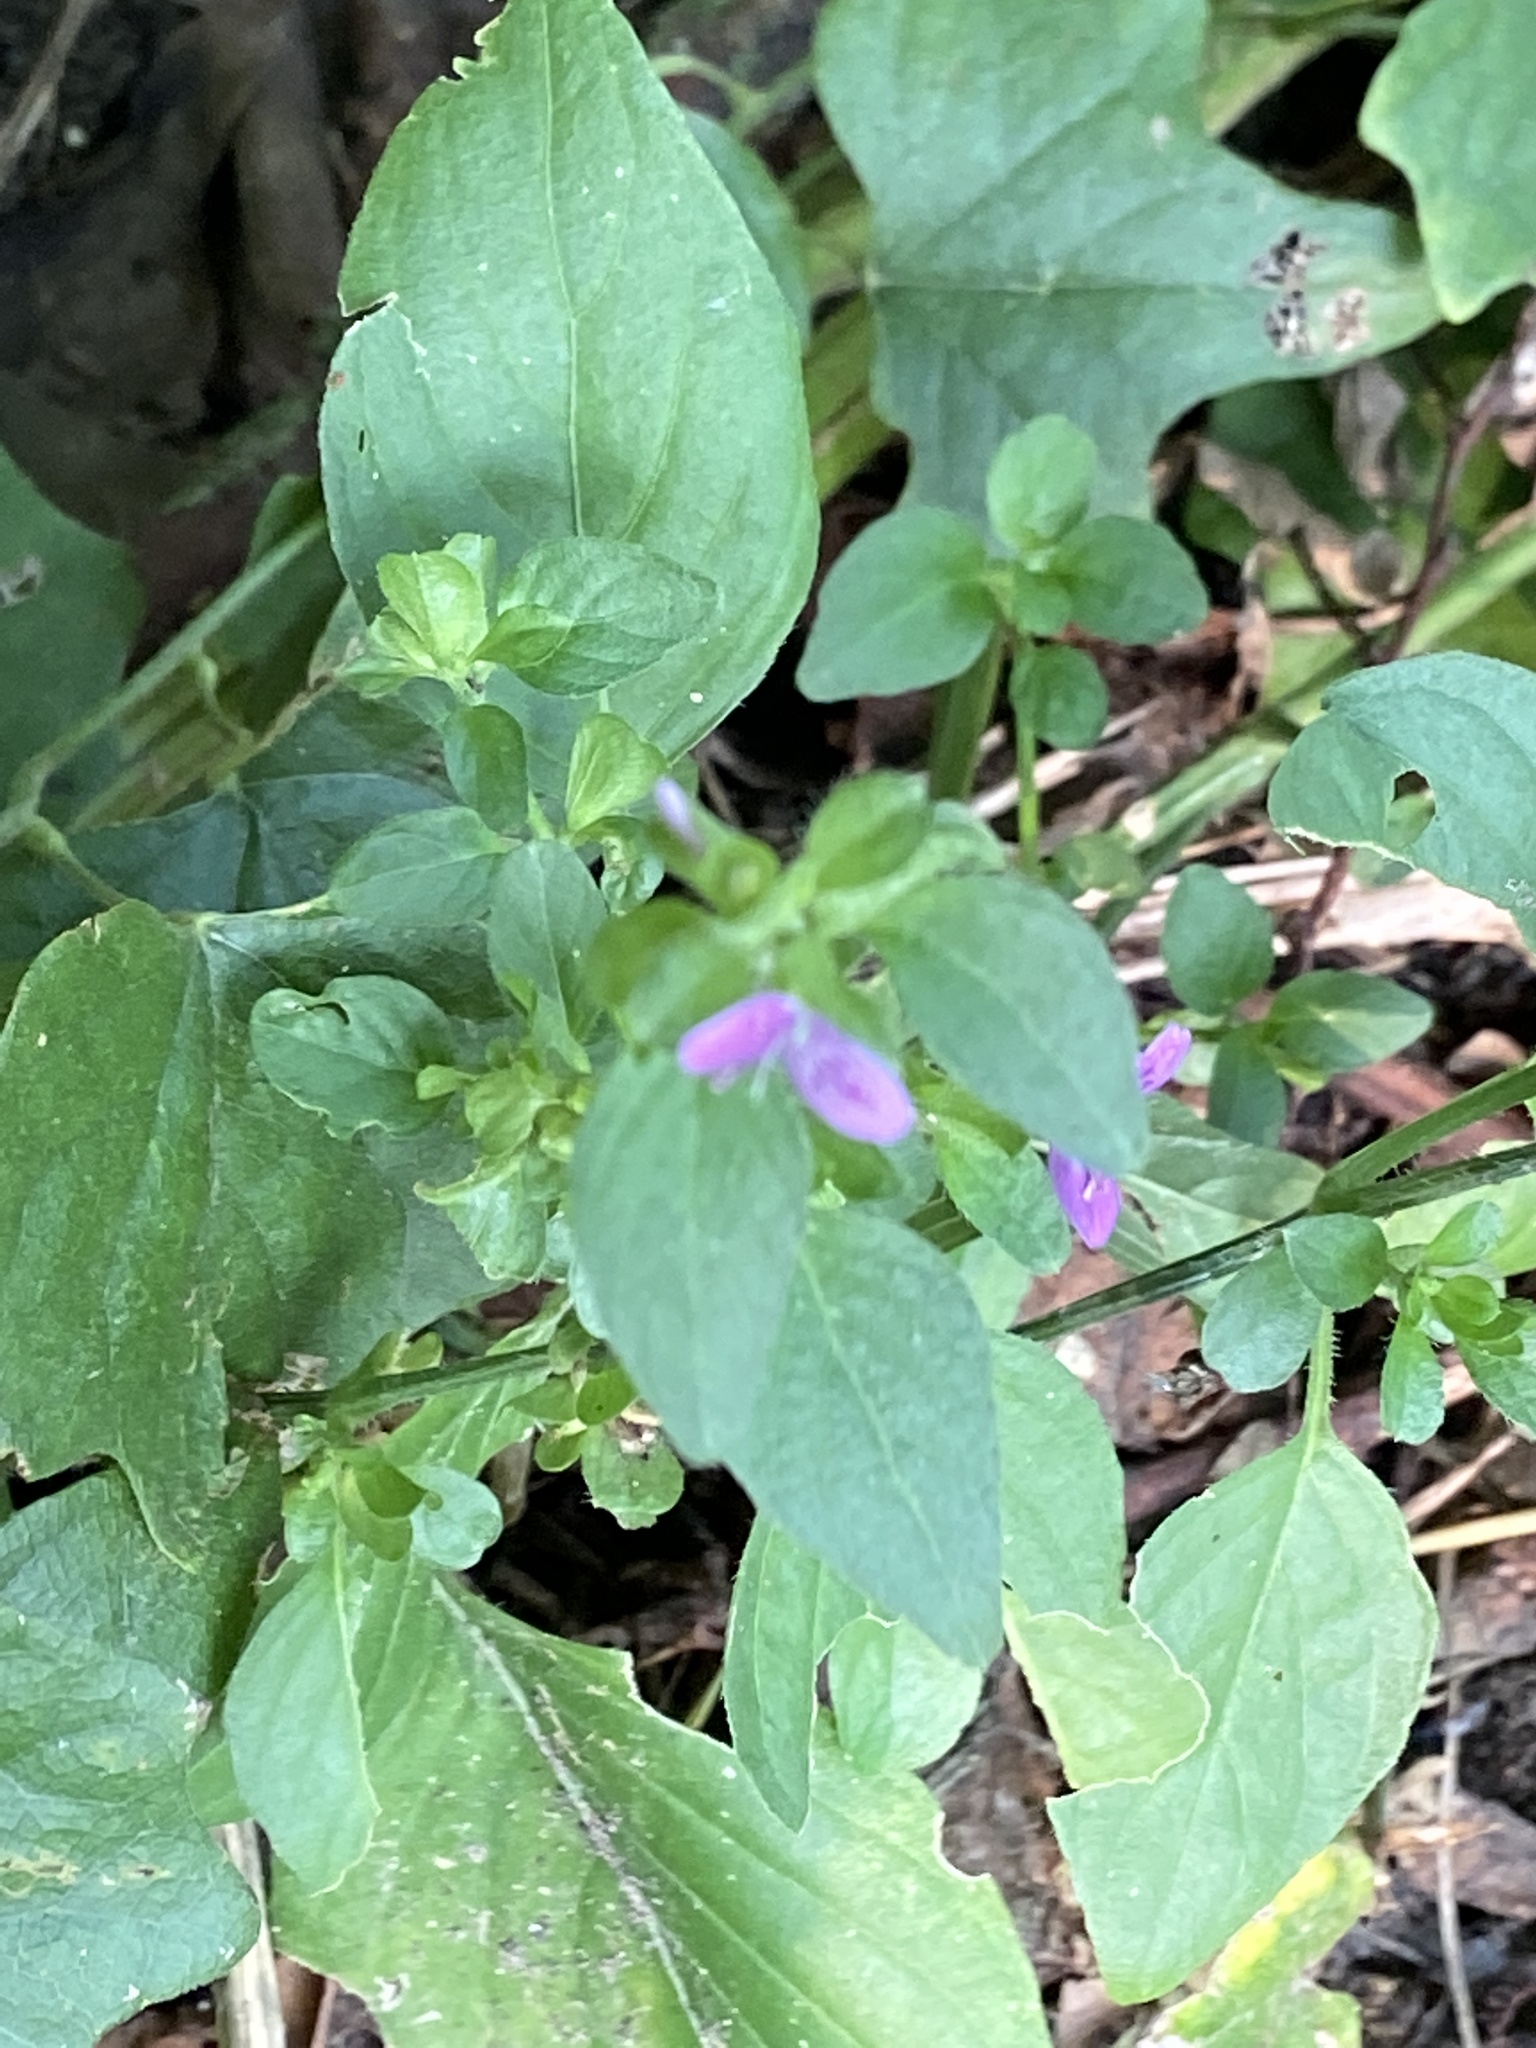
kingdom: Plantae
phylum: Tracheophyta
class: Magnoliopsida
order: Lamiales
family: Acanthaceae
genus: Dicliptera
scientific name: Dicliptera brachiata
